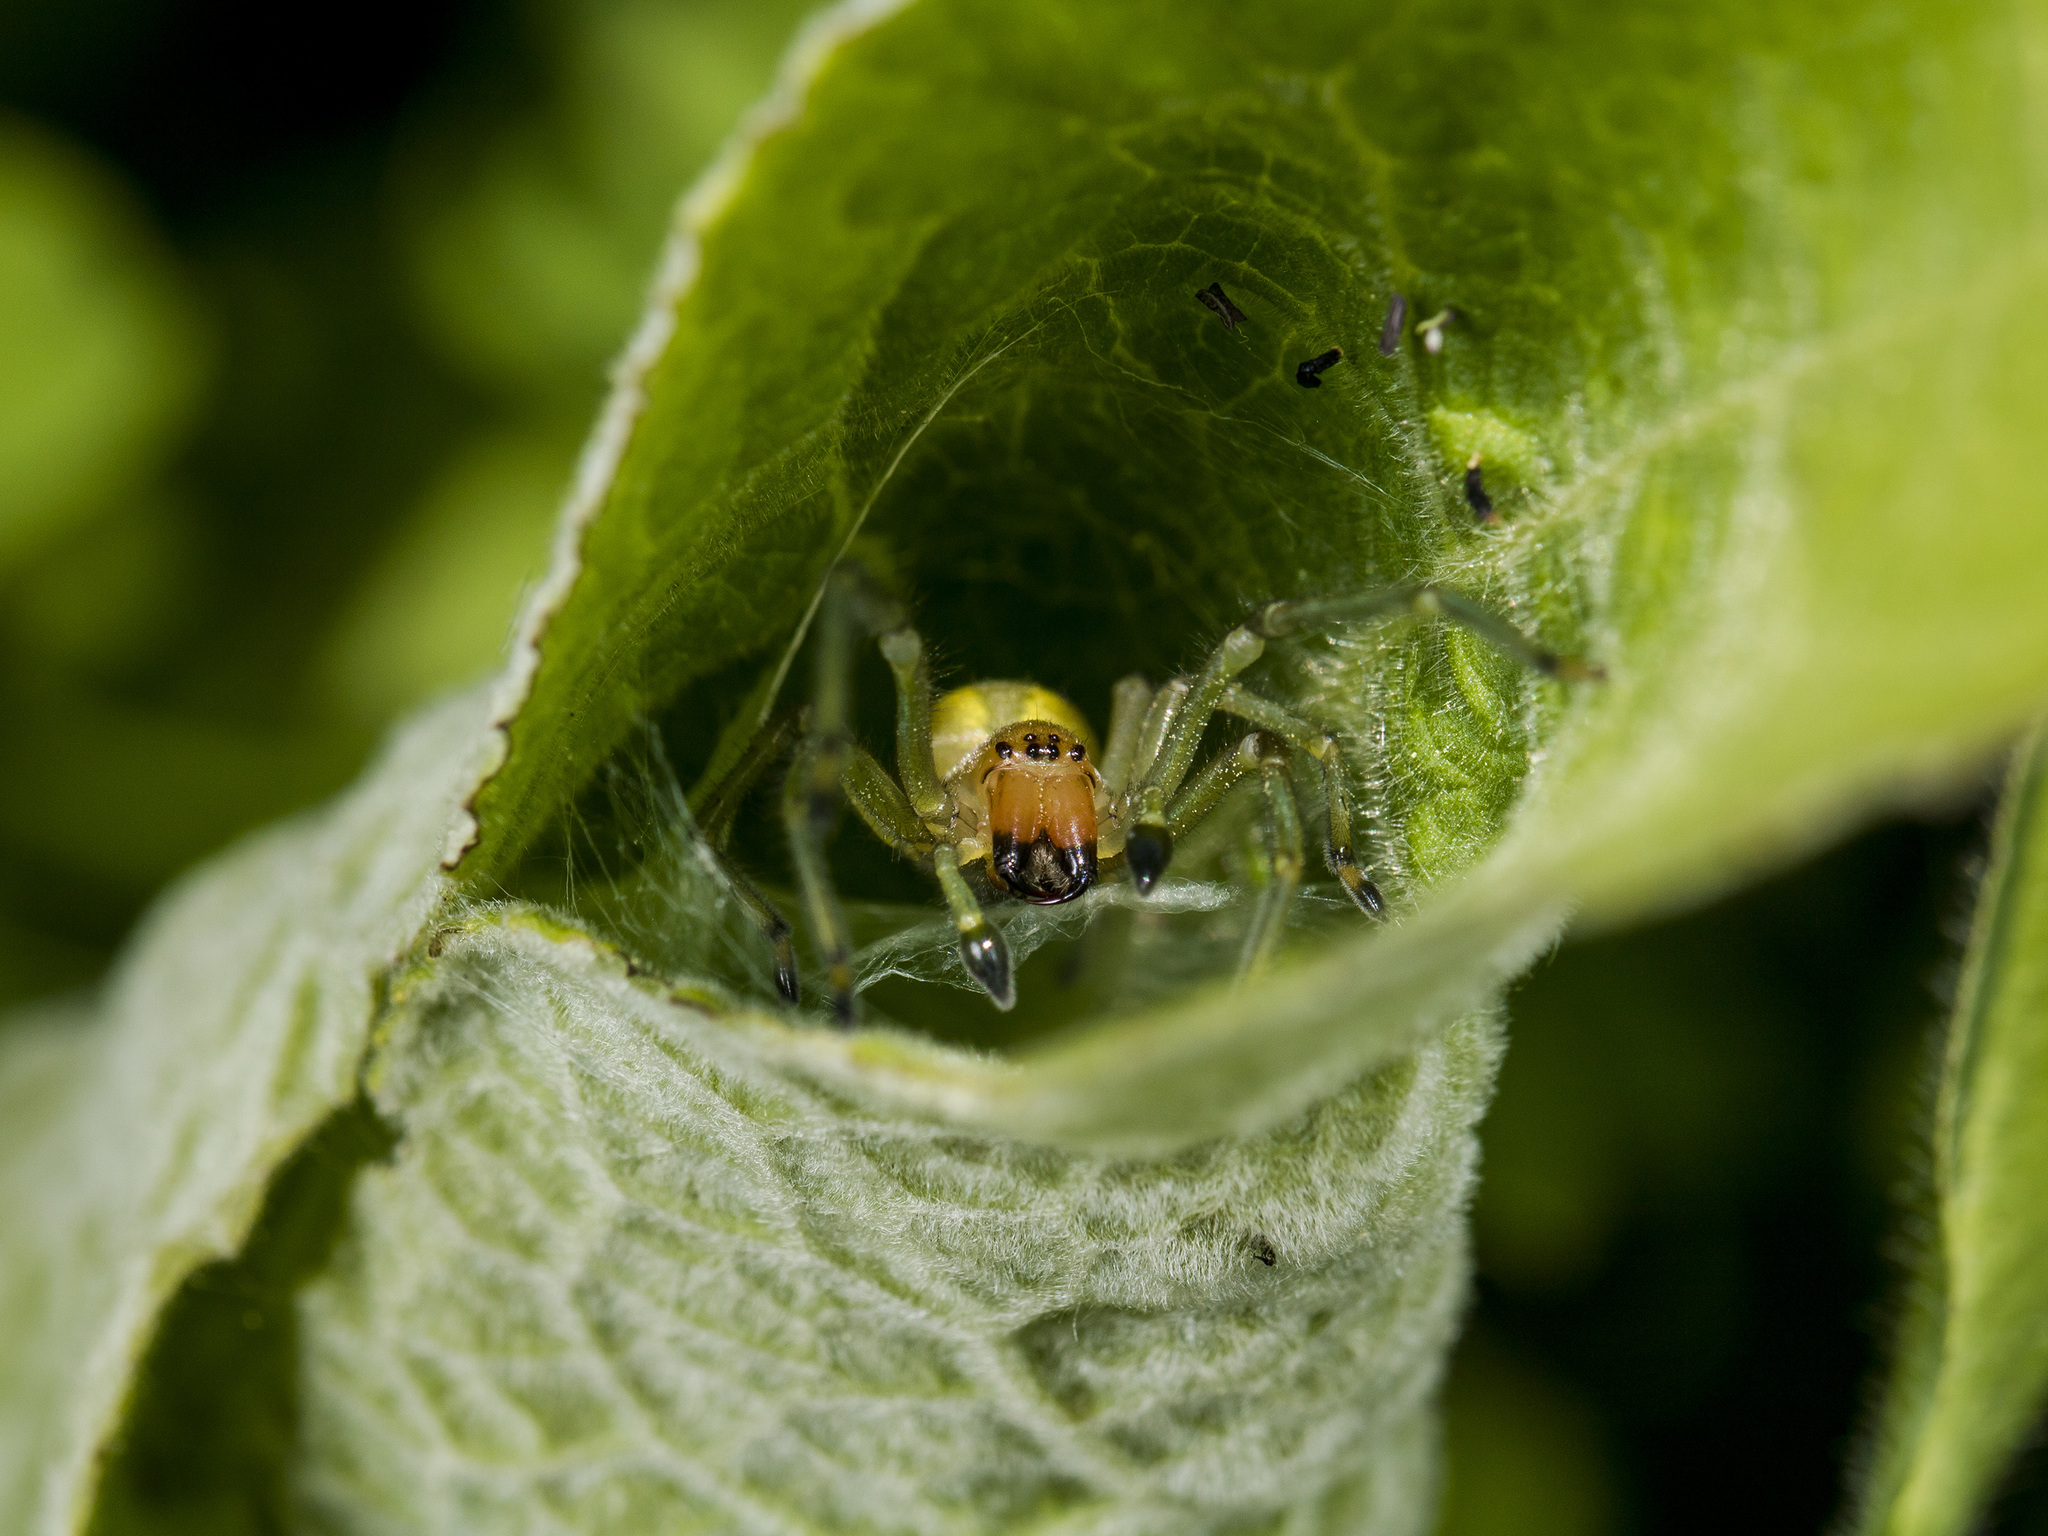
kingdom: Animalia
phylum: Arthropoda
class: Arachnida
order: Araneae
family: Cheiracanthiidae
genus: Cheiracanthium
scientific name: Cheiracanthium punctorium
